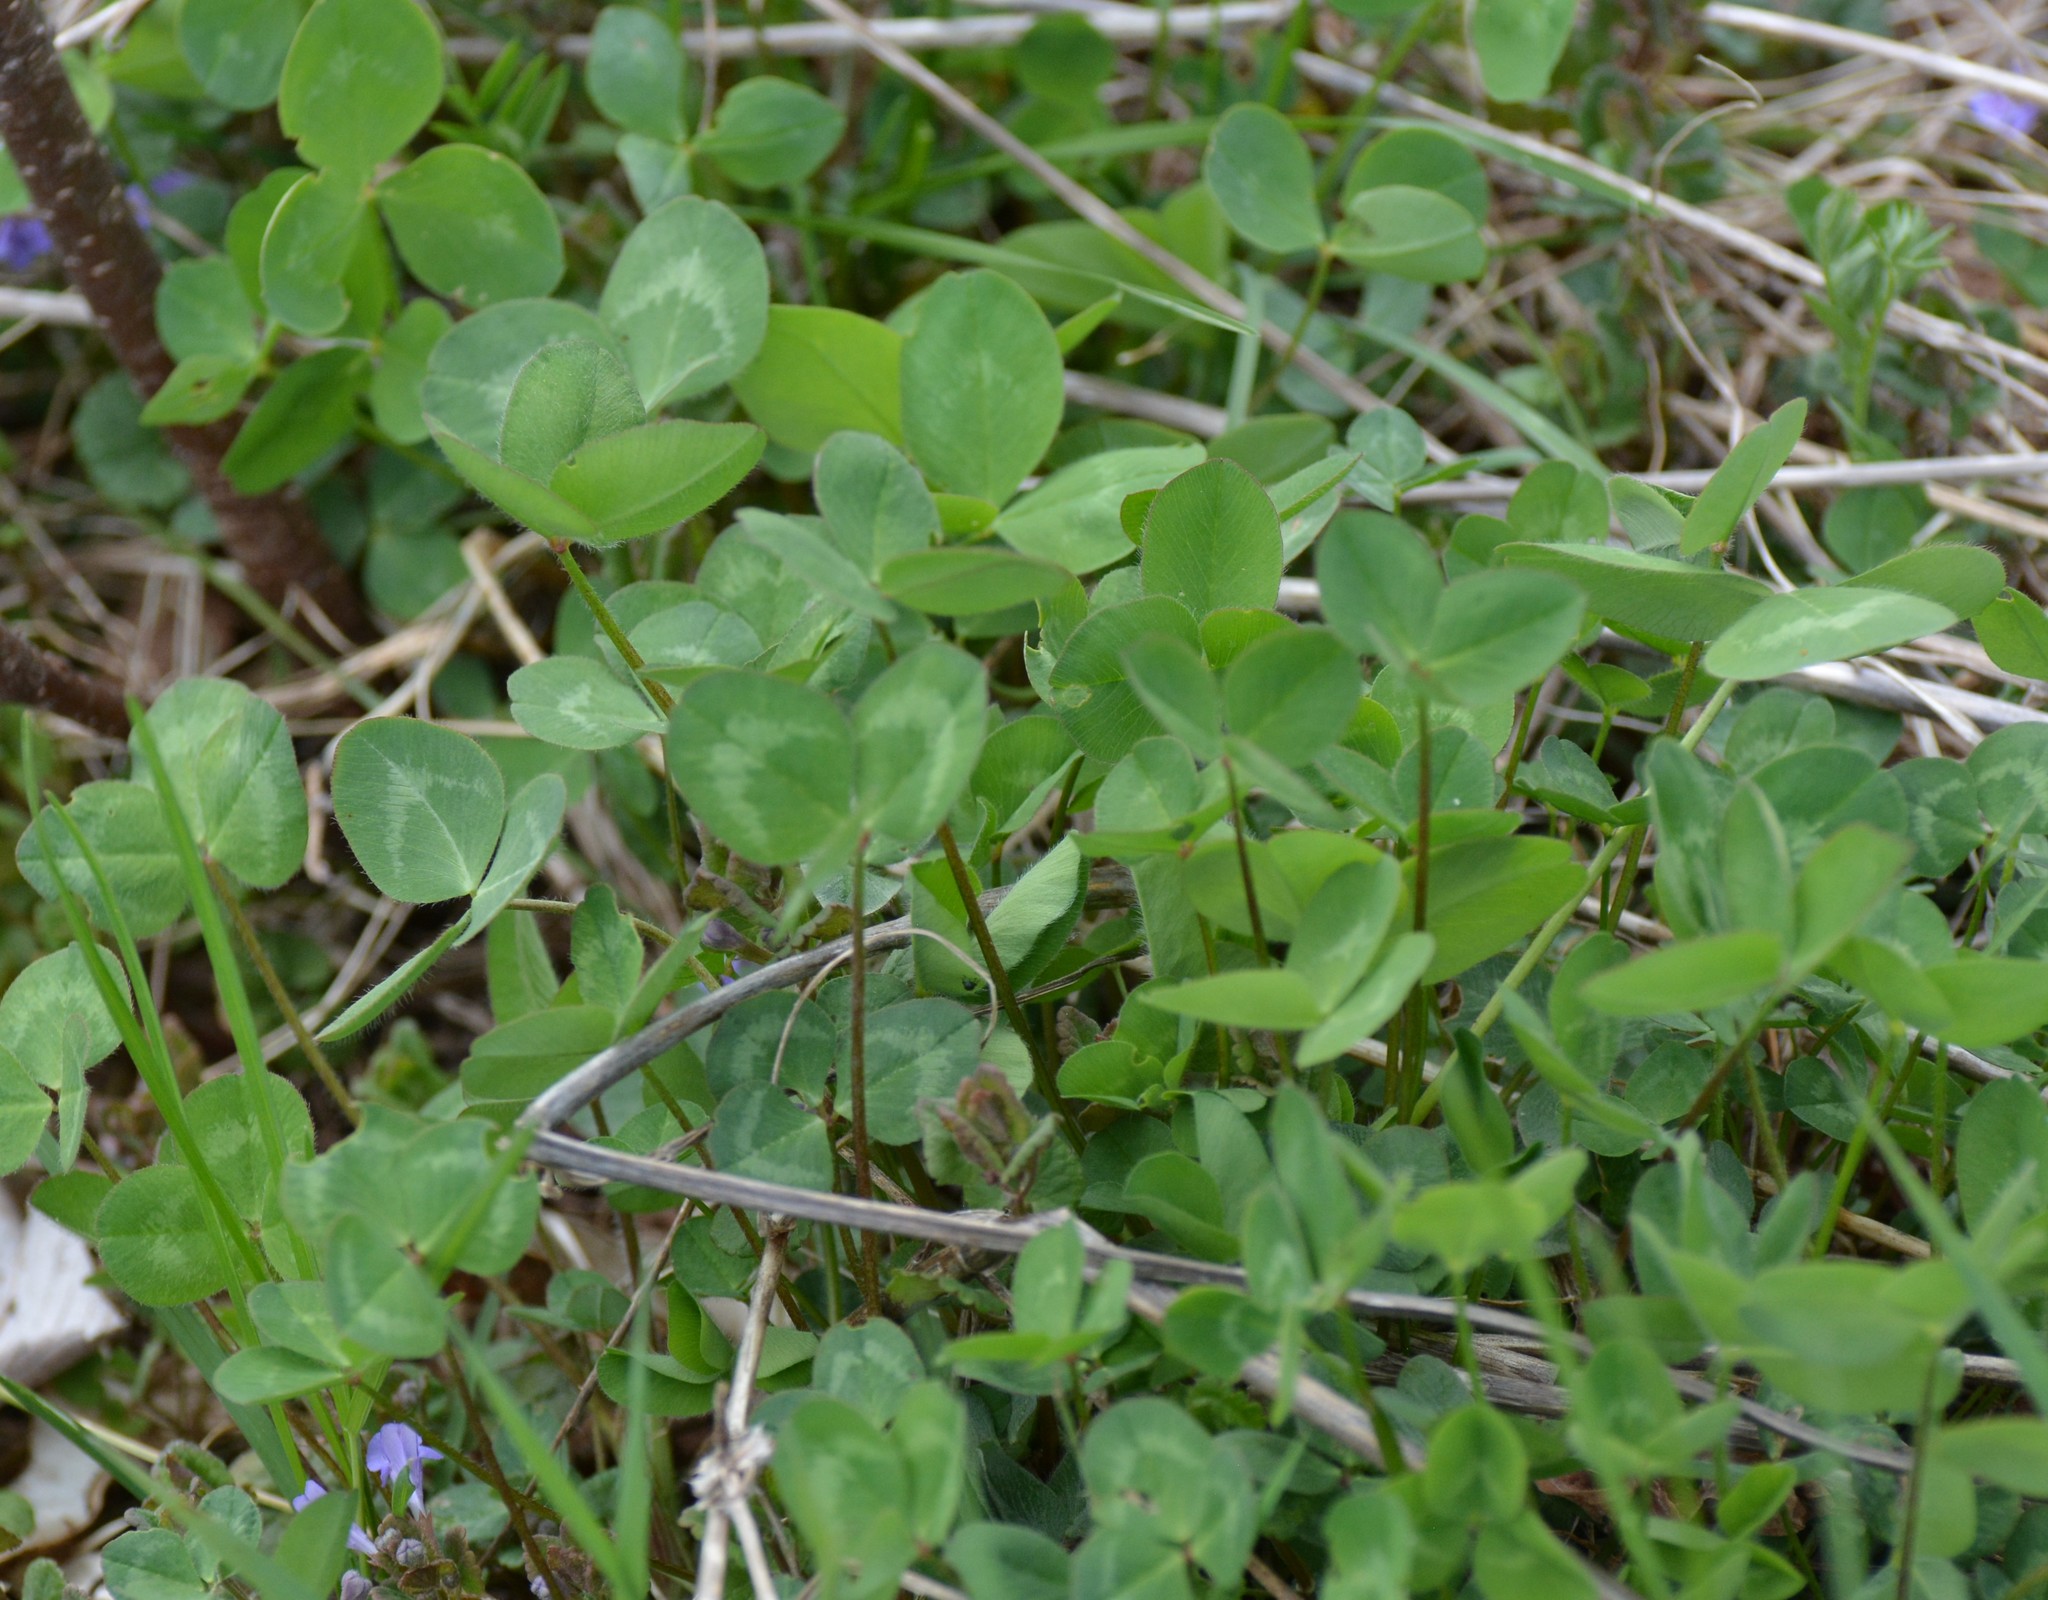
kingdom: Plantae
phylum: Tracheophyta
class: Magnoliopsida
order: Fabales
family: Fabaceae
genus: Trifolium
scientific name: Trifolium pratense
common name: Red clover
